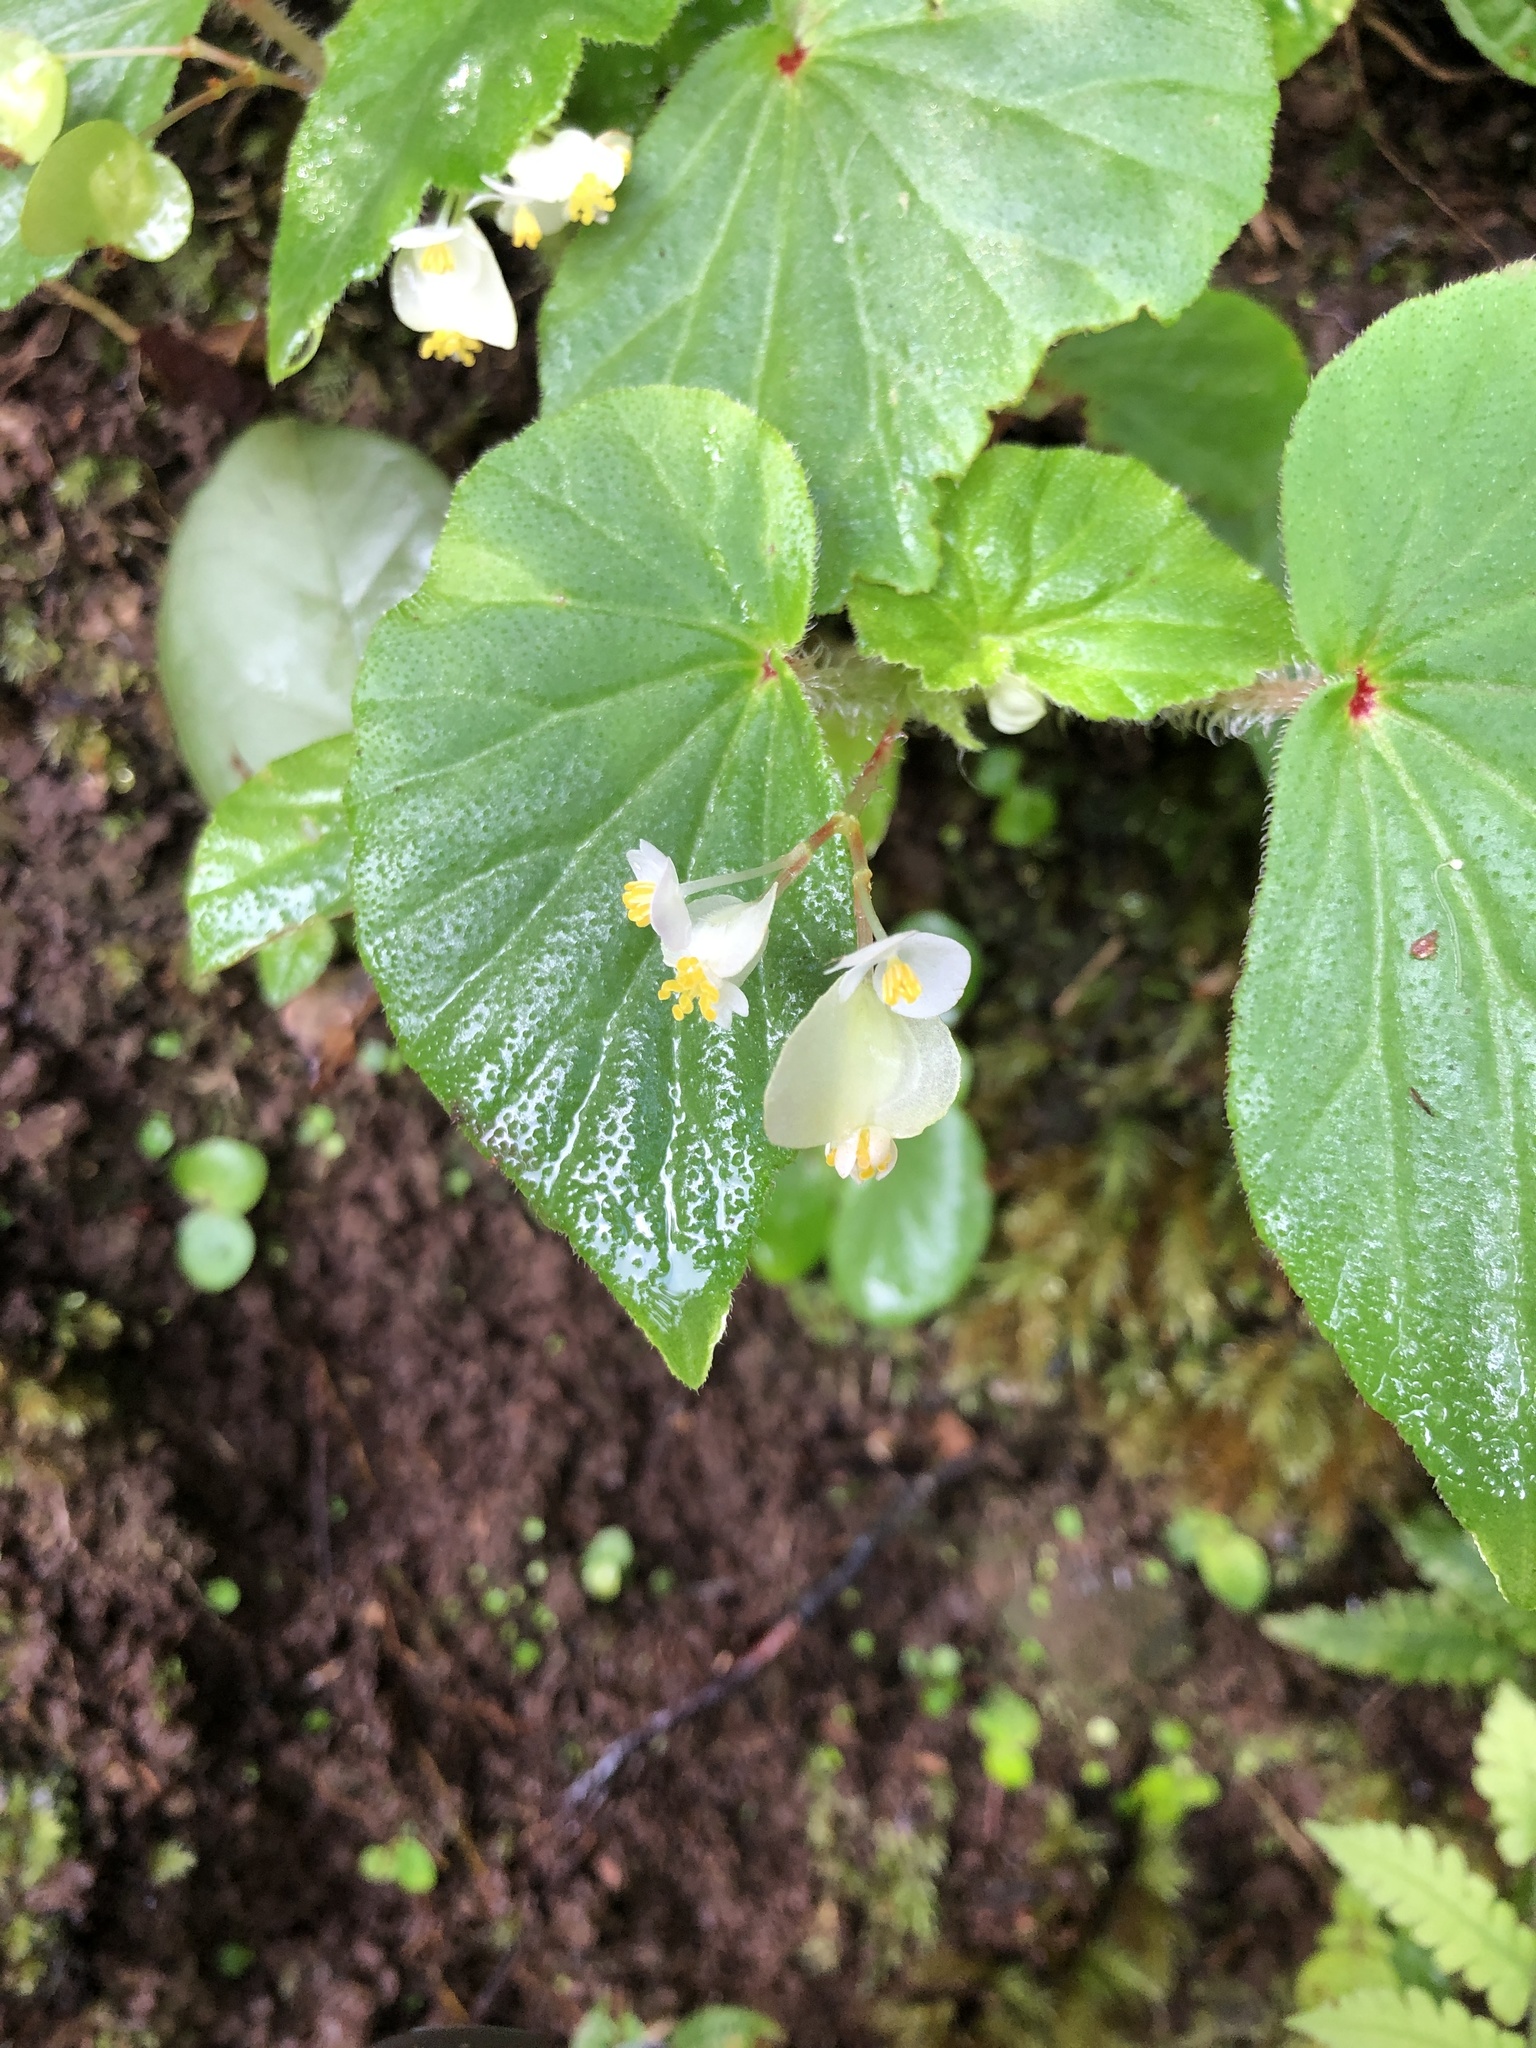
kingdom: Plantae
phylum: Tracheophyta
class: Magnoliopsida
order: Cucurbitales
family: Begoniaceae
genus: Begonia
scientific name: Begonia hirtella
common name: Brazilian begonia
